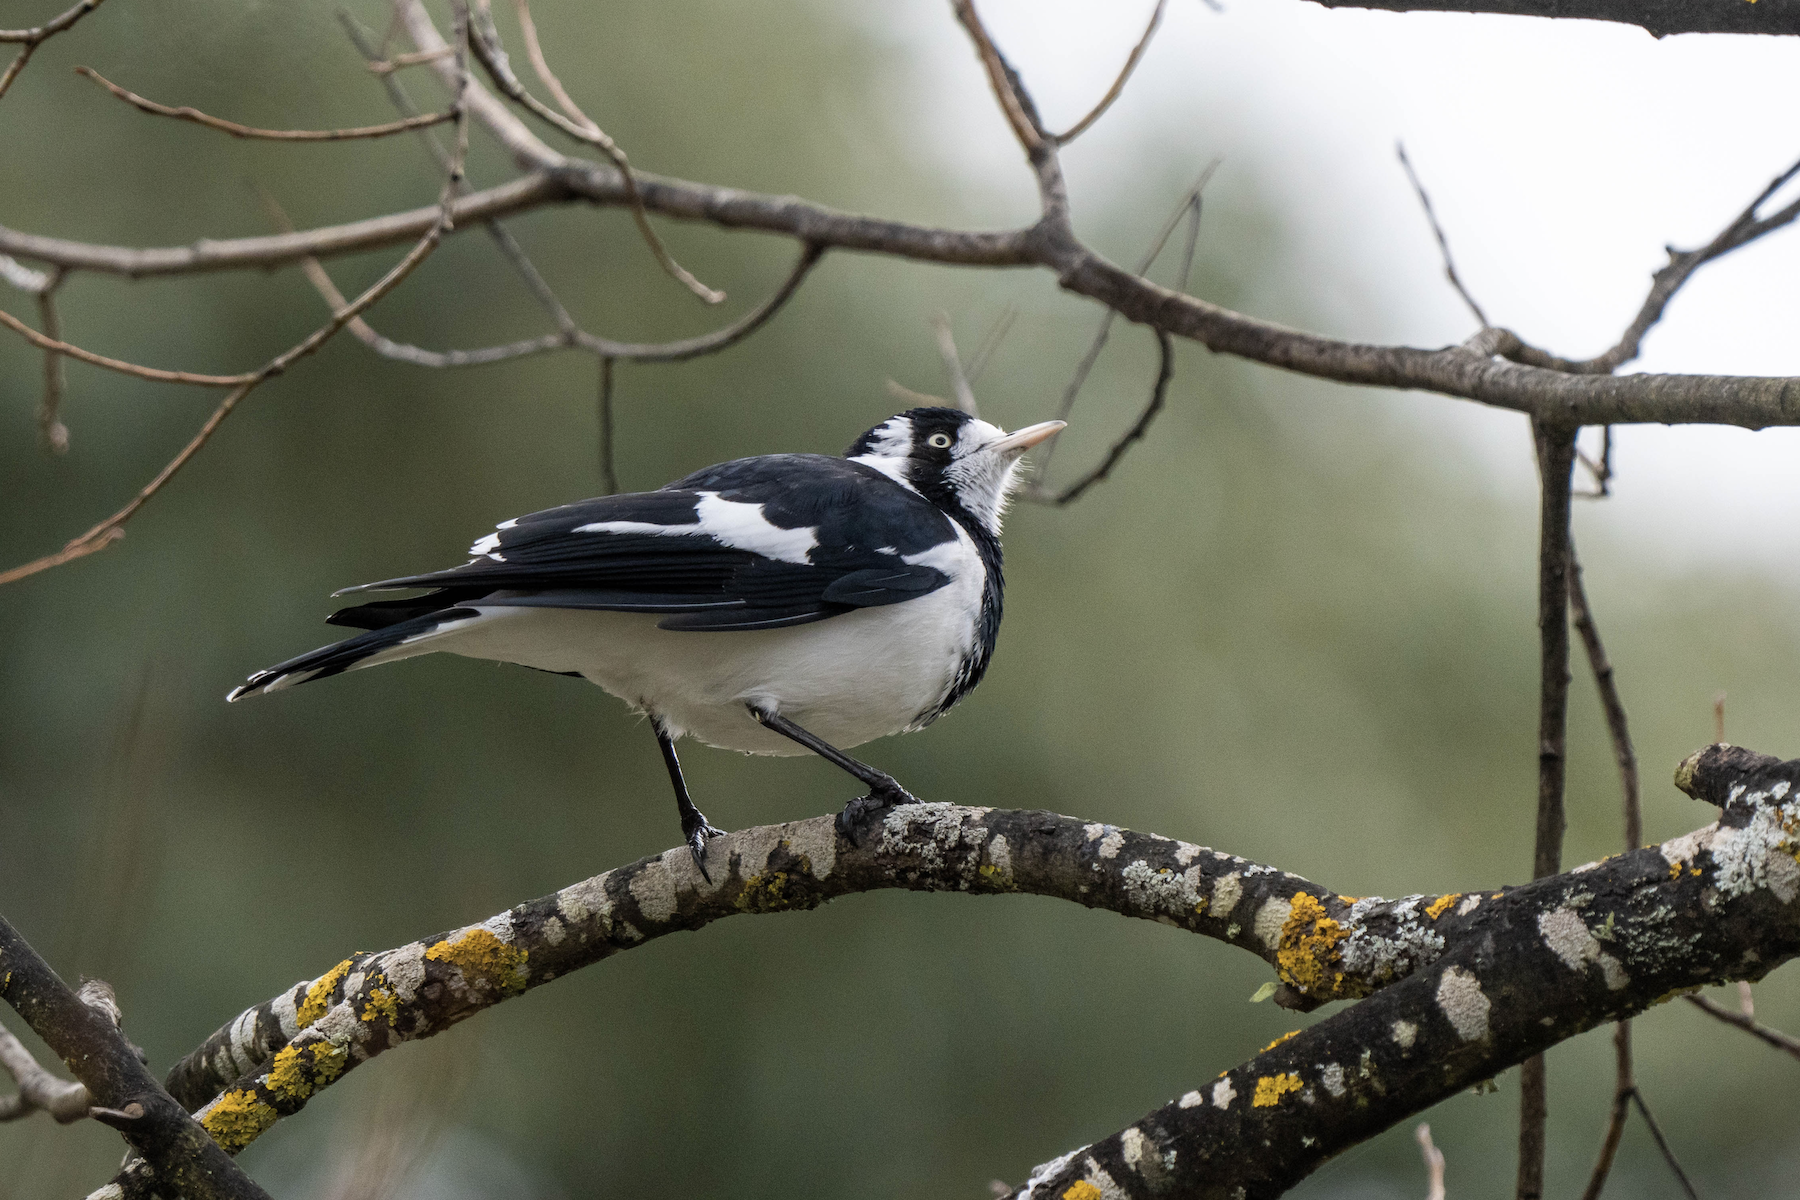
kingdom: Animalia
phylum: Chordata
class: Aves
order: Passeriformes
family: Monarchidae
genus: Grallina
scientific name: Grallina cyanoleuca
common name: Magpie-lark
